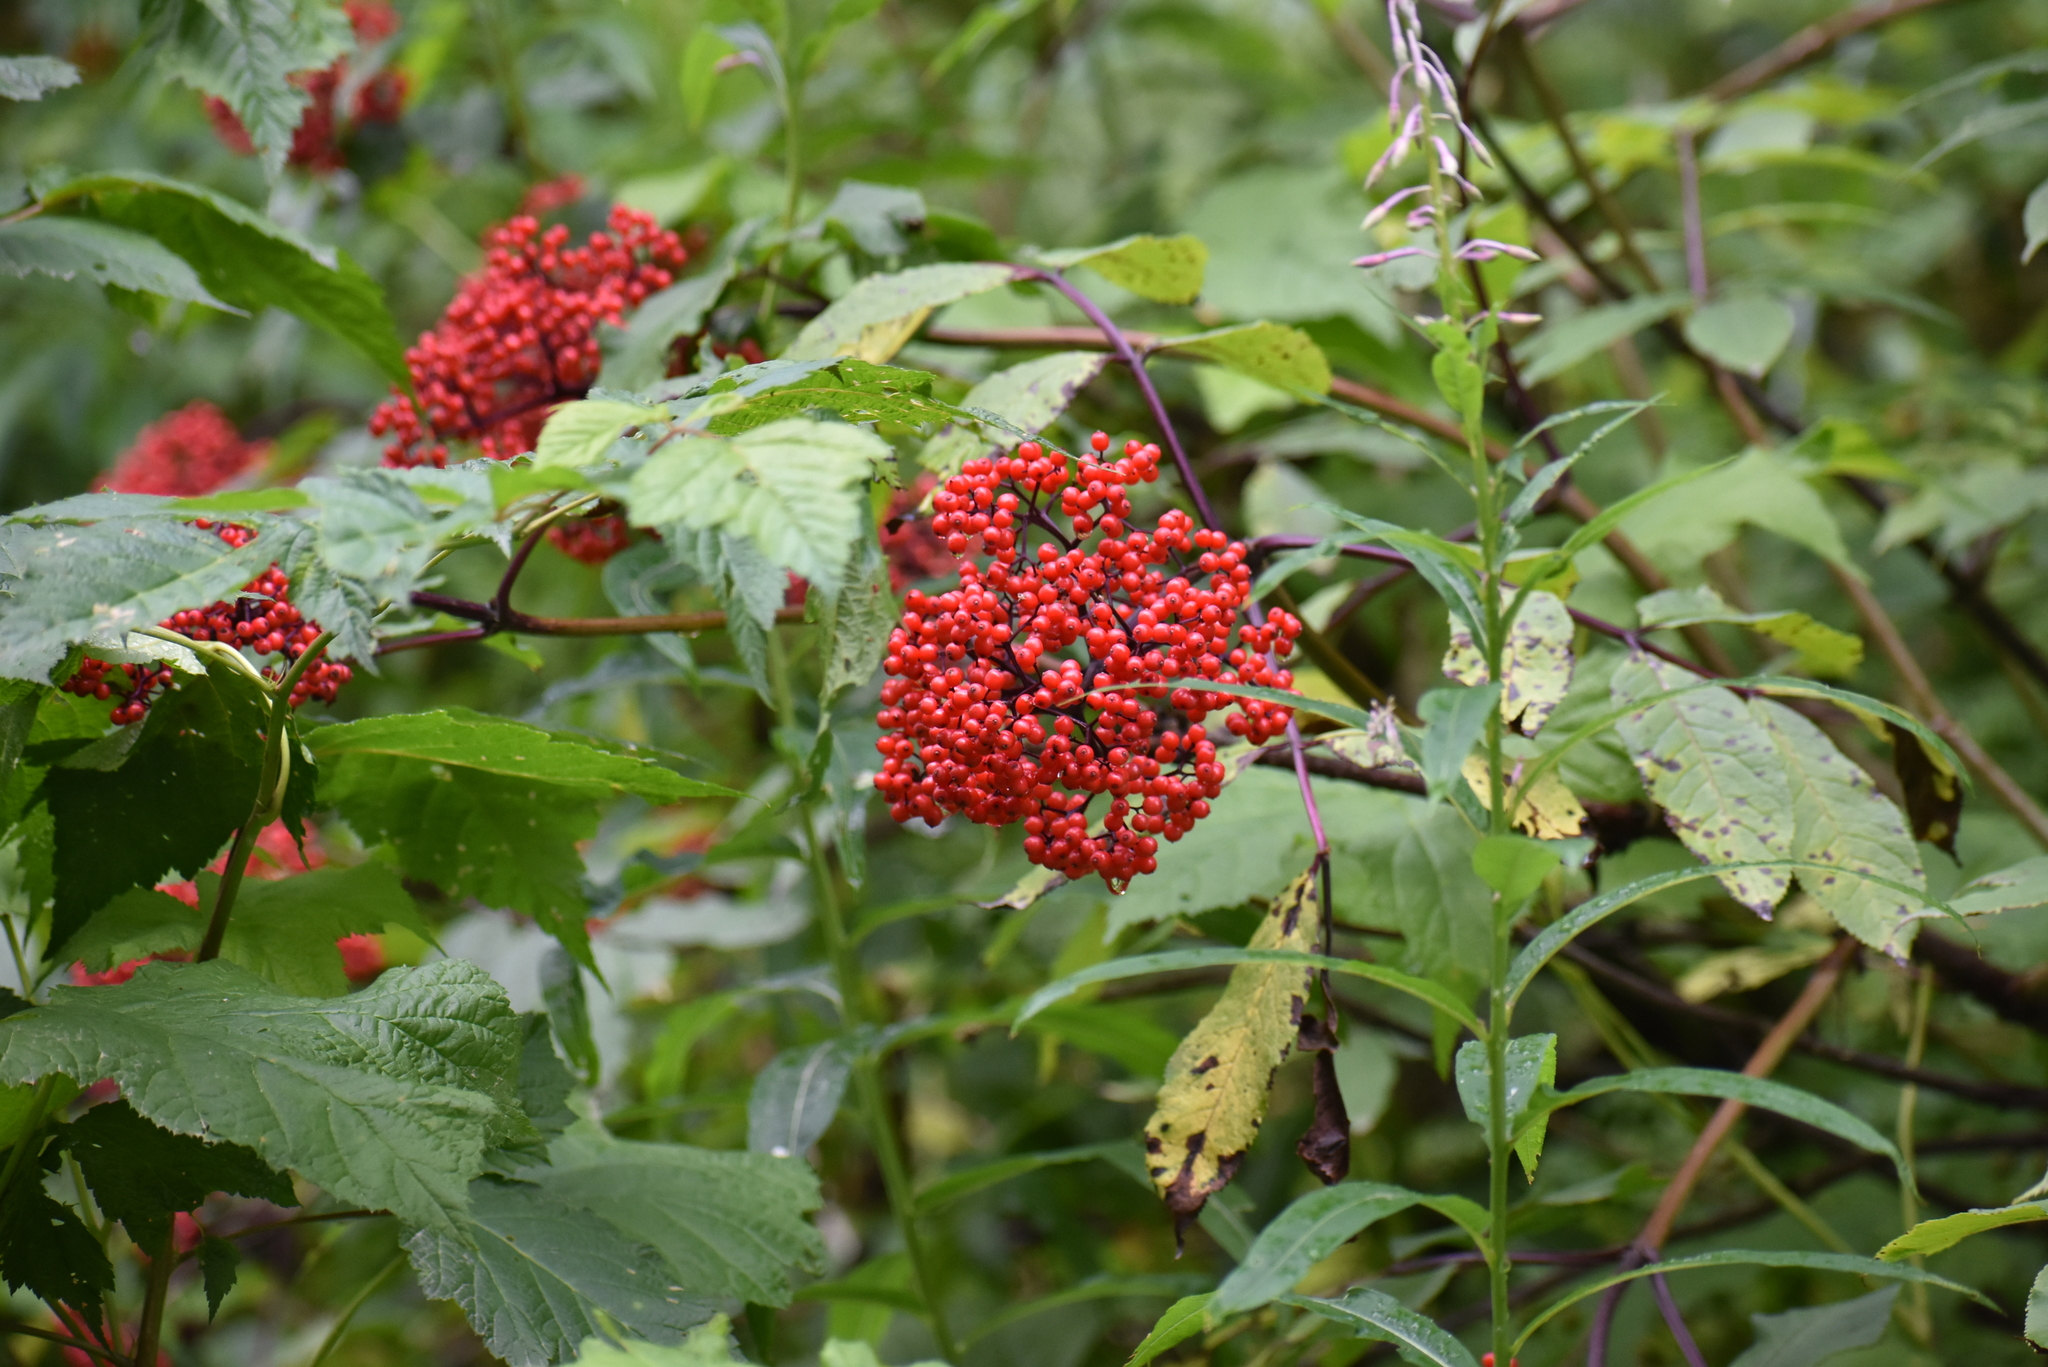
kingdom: Plantae
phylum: Tracheophyta
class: Magnoliopsida
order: Dipsacales
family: Viburnaceae
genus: Sambucus
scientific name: Sambucus racemosa
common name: Red-berried elder
